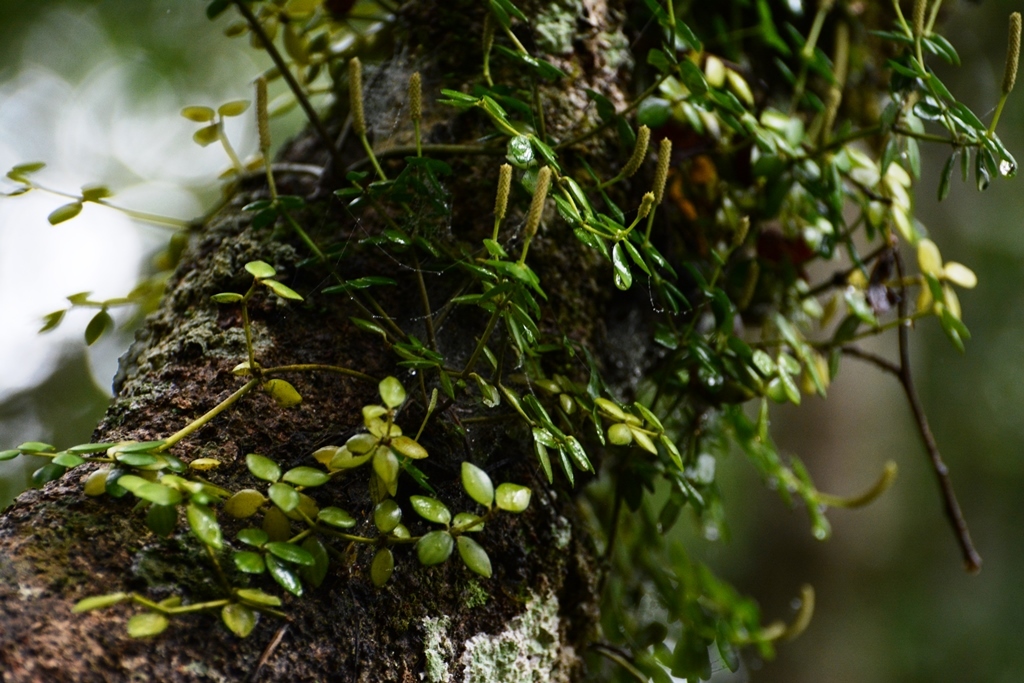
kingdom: Plantae
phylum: Tracheophyta
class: Magnoliopsida
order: Piperales
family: Piperaceae
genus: Peperomia
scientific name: Peperomia tetraphylla
